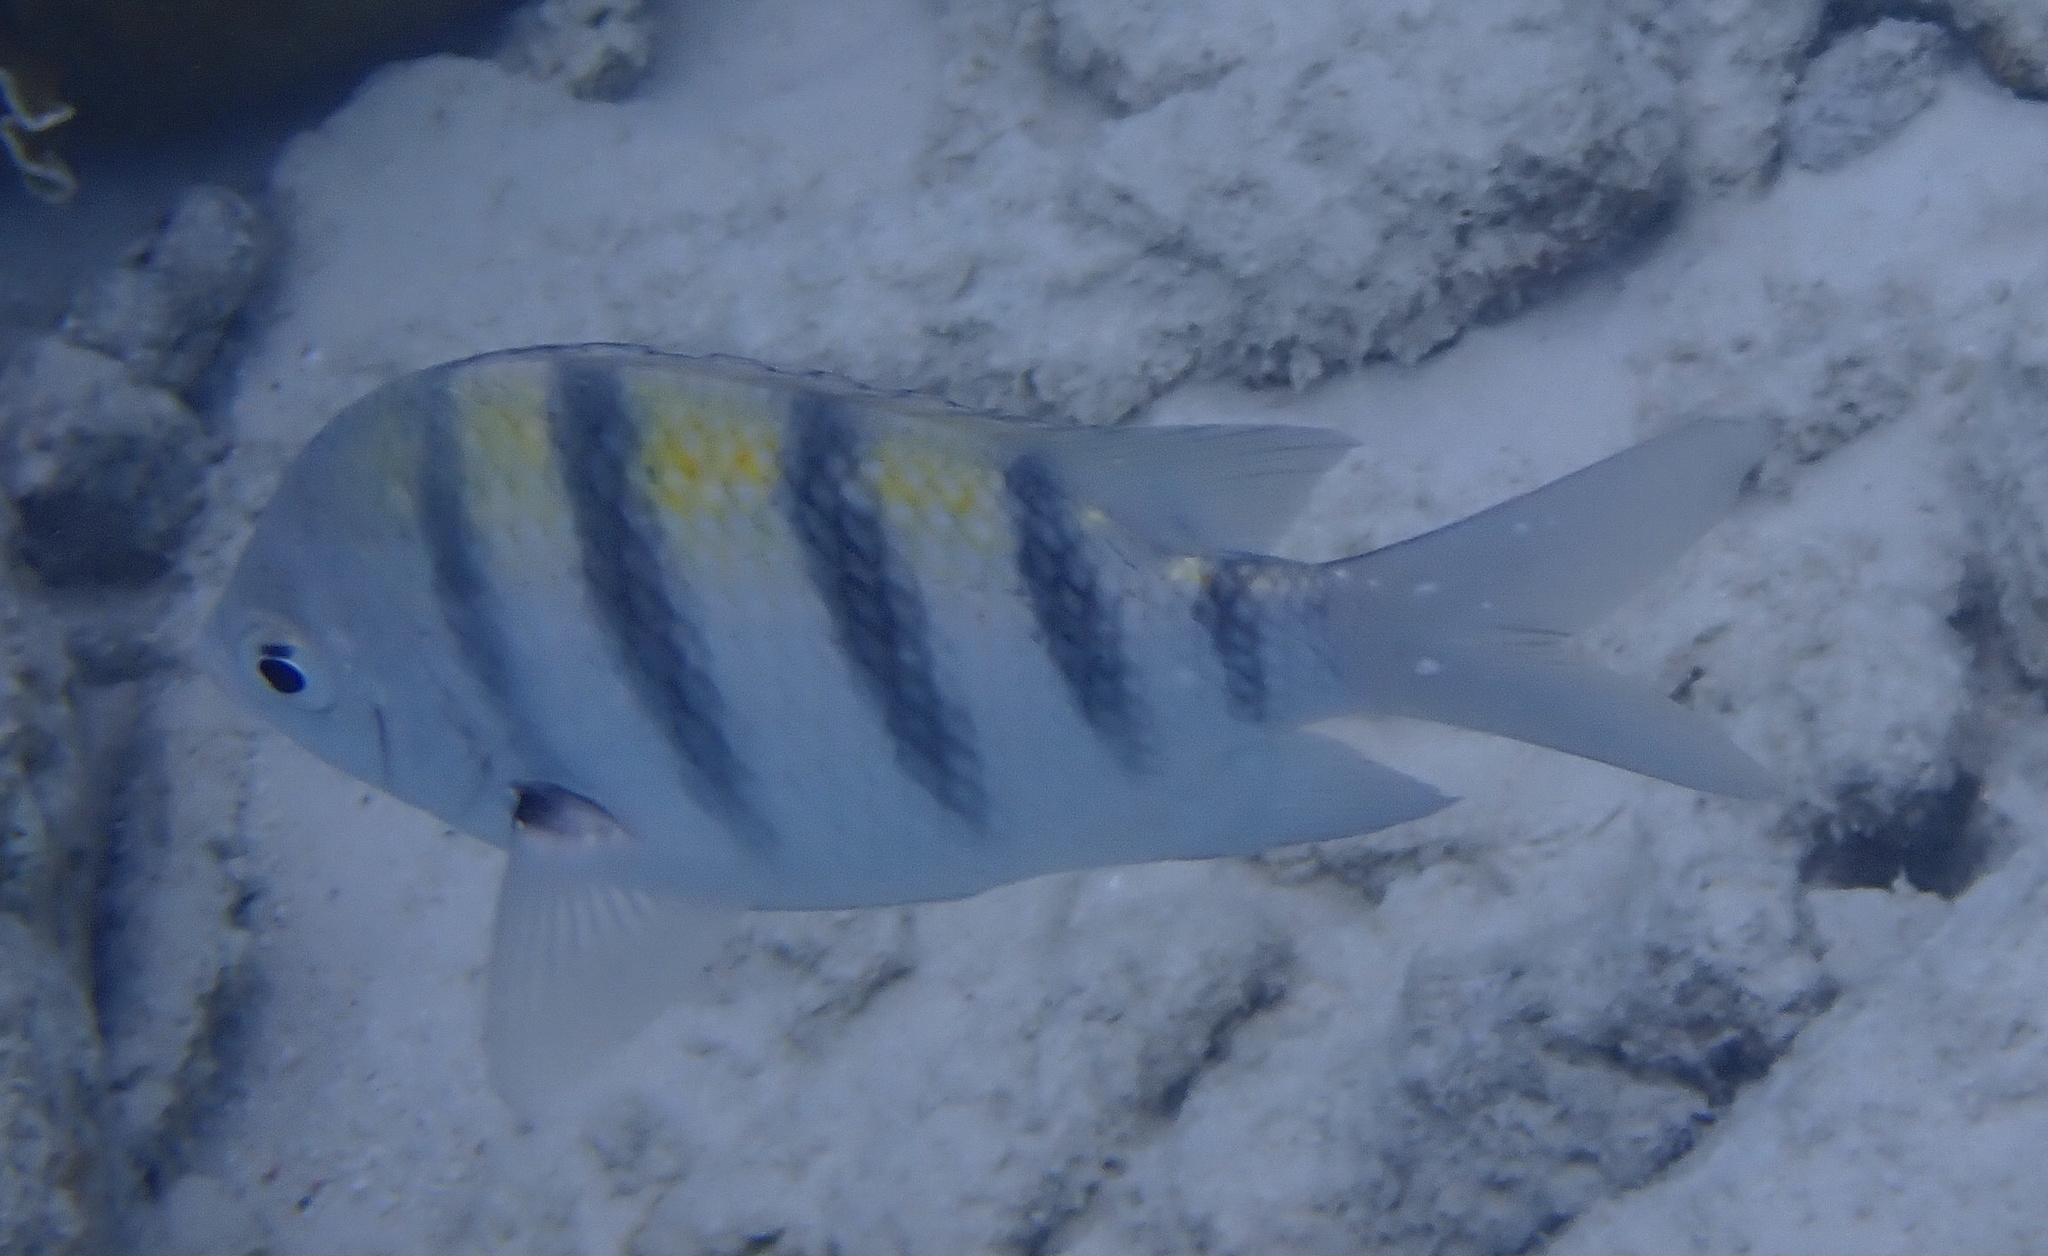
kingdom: Animalia
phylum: Chordata
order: Perciformes
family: Pomacentridae
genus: Abudefduf
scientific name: Abudefduf saxatilis
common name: Sergeant major
